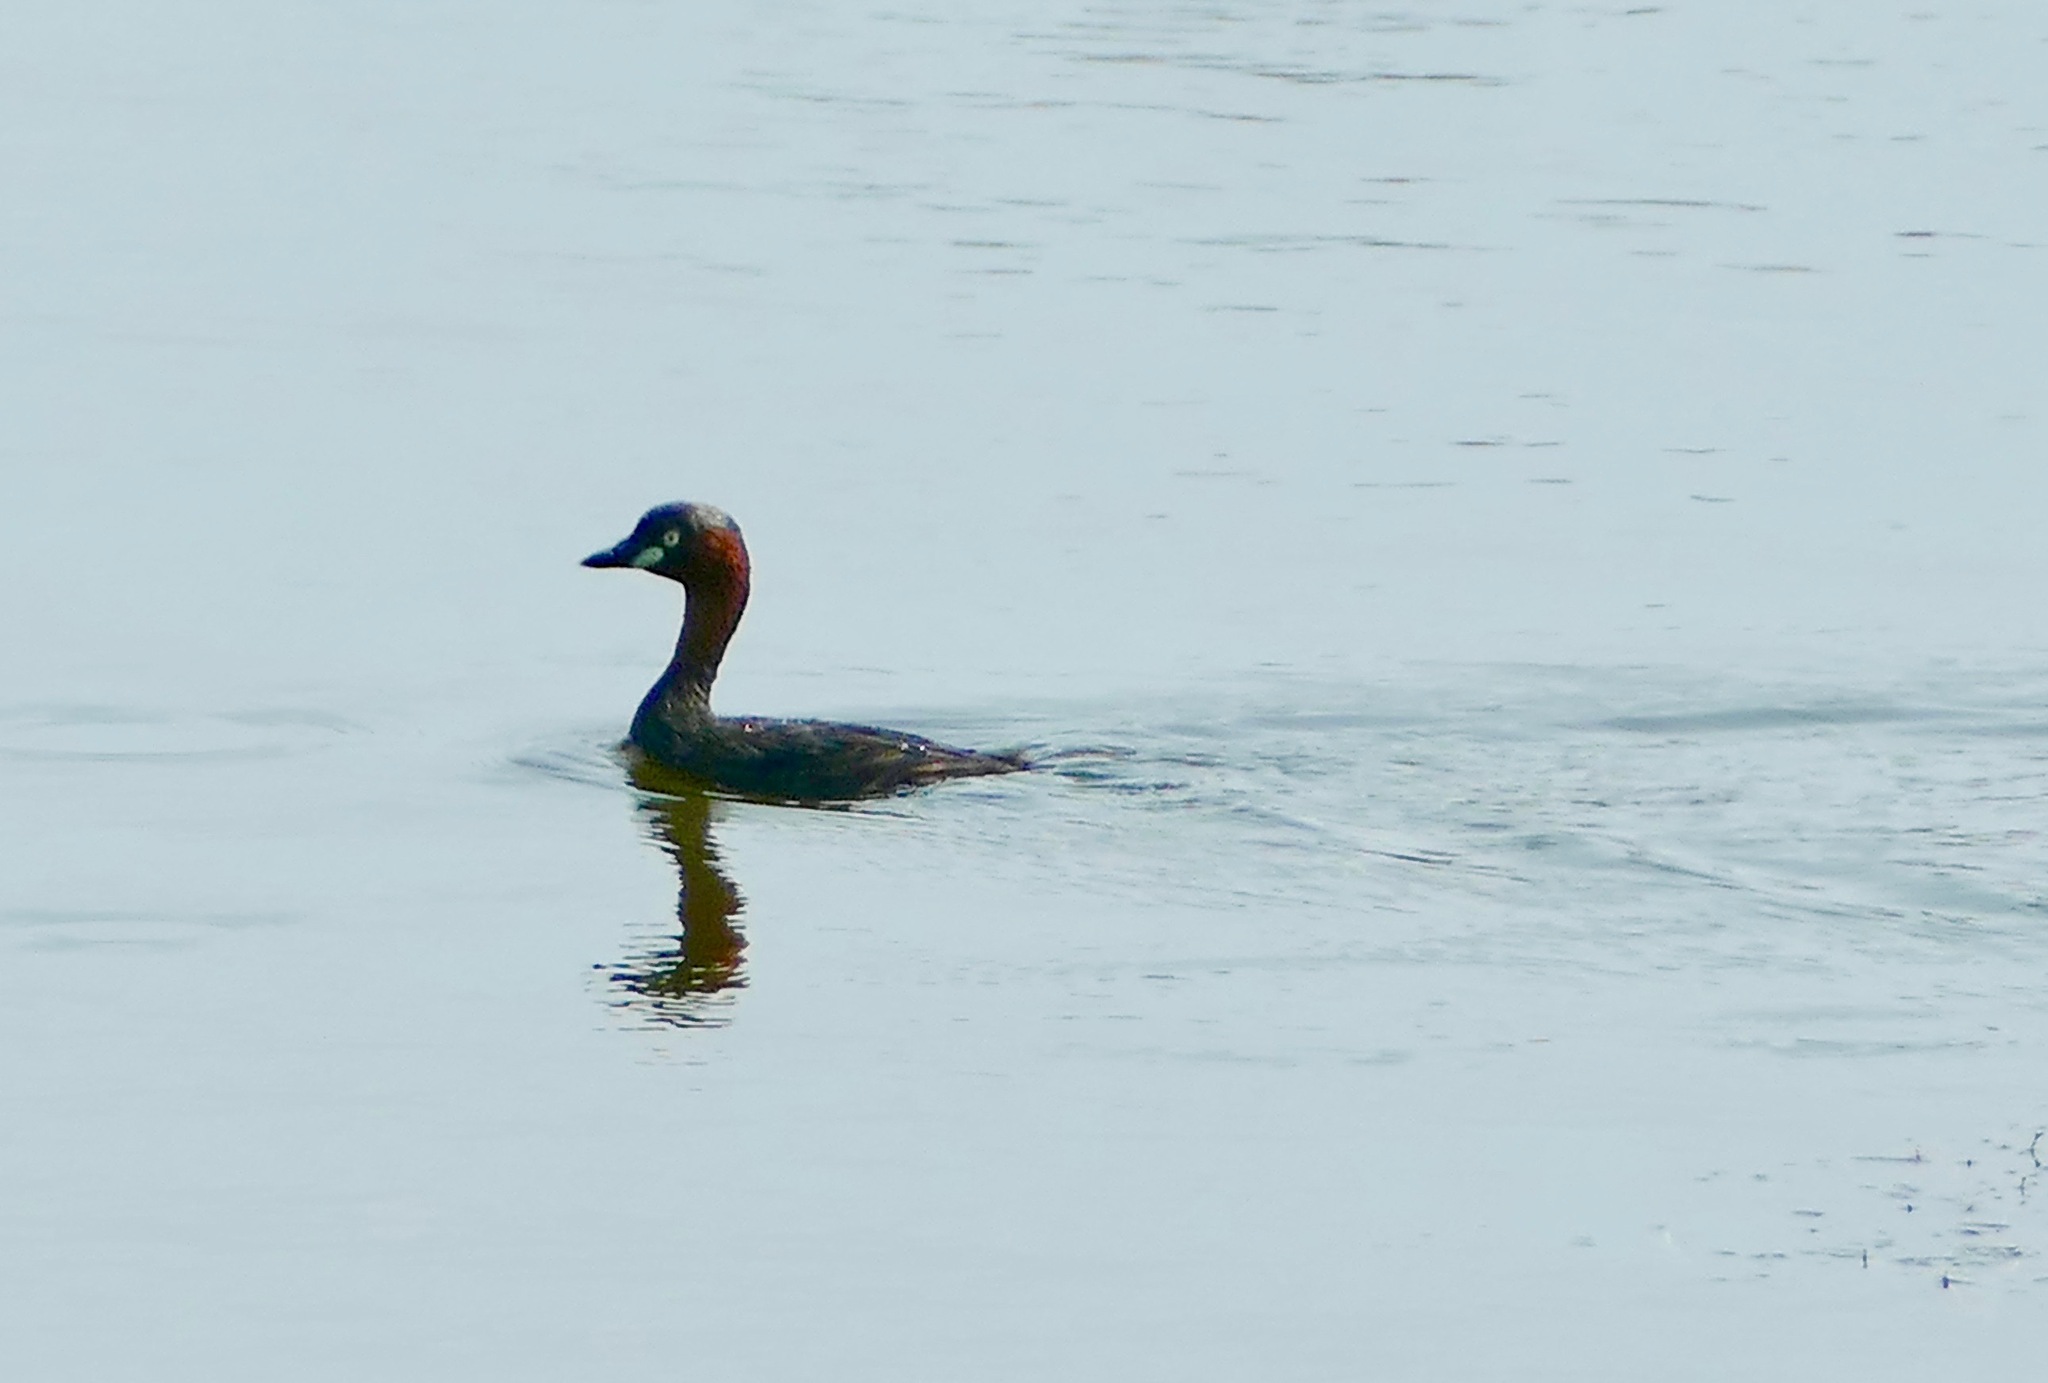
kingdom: Animalia
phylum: Chordata
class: Aves
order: Podicipediformes
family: Podicipedidae
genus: Tachybaptus
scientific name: Tachybaptus ruficollis
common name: Little grebe
